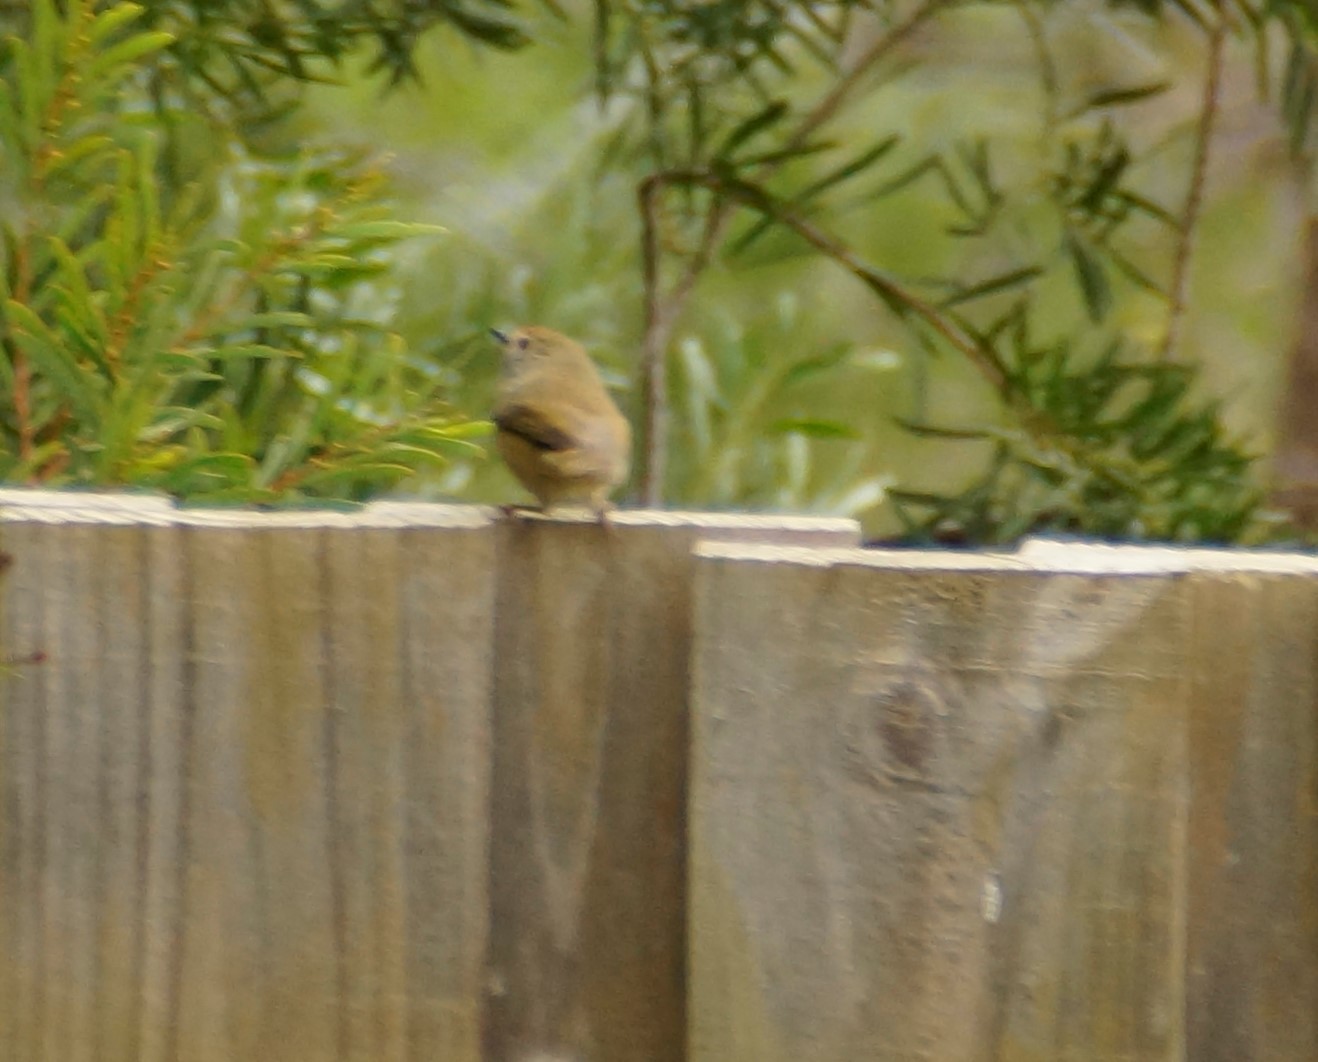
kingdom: Animalia
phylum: Chordata
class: Aves
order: Passeriformes
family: Acanthizidae
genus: Acanthiza
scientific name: Acanthiza pusilla
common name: Brown thornbill
